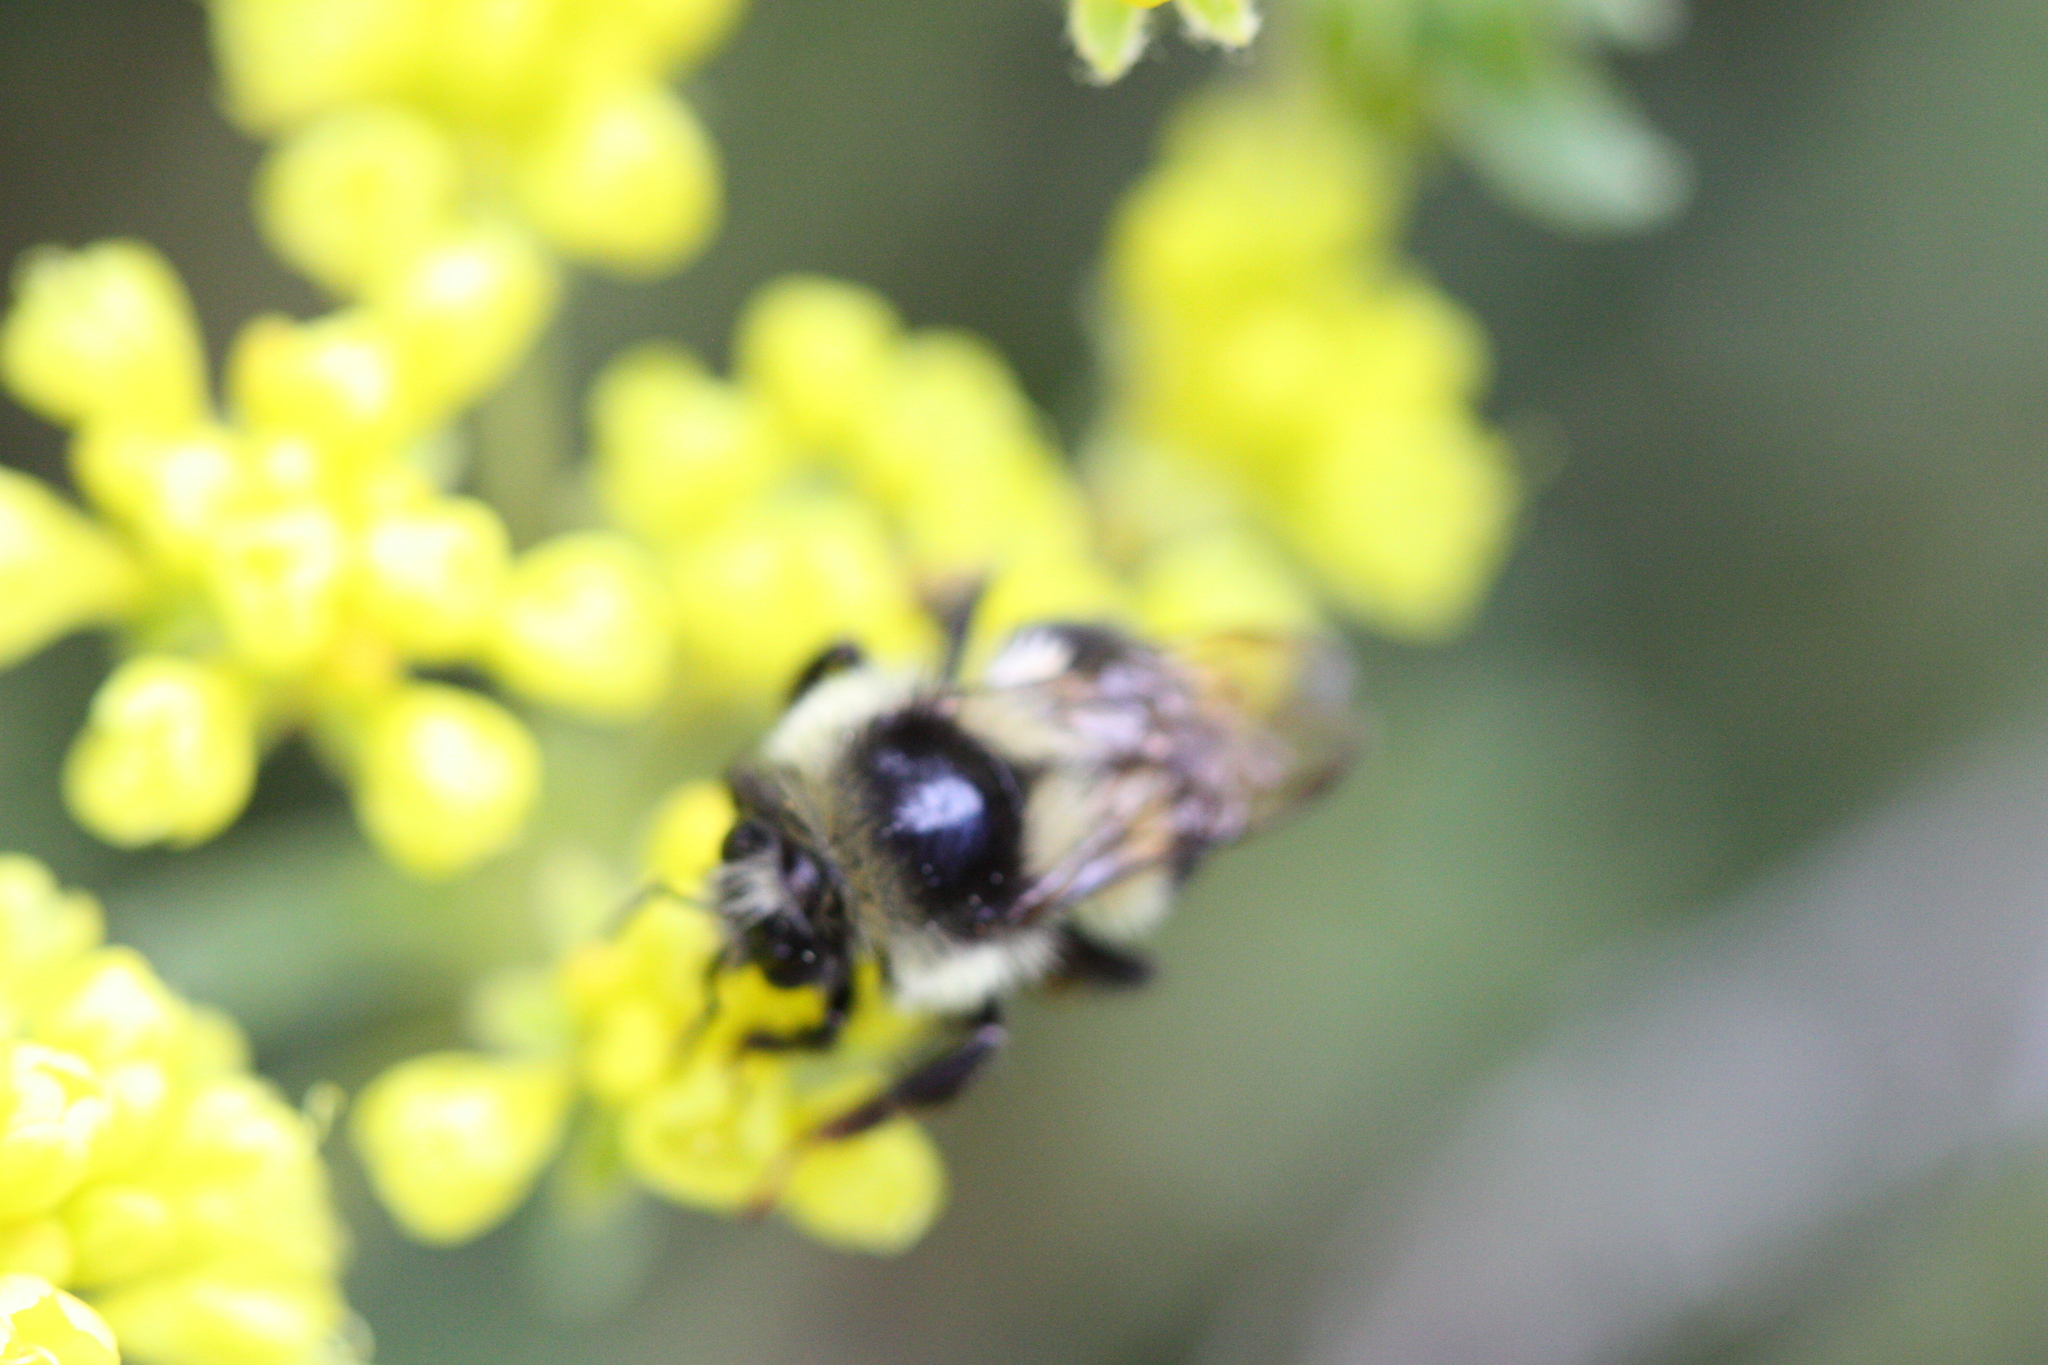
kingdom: Animalia
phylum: Arthropoda
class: Insecta
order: Hymenoptera
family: Apidae
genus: Bombus
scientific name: Bombus vancouverensis
